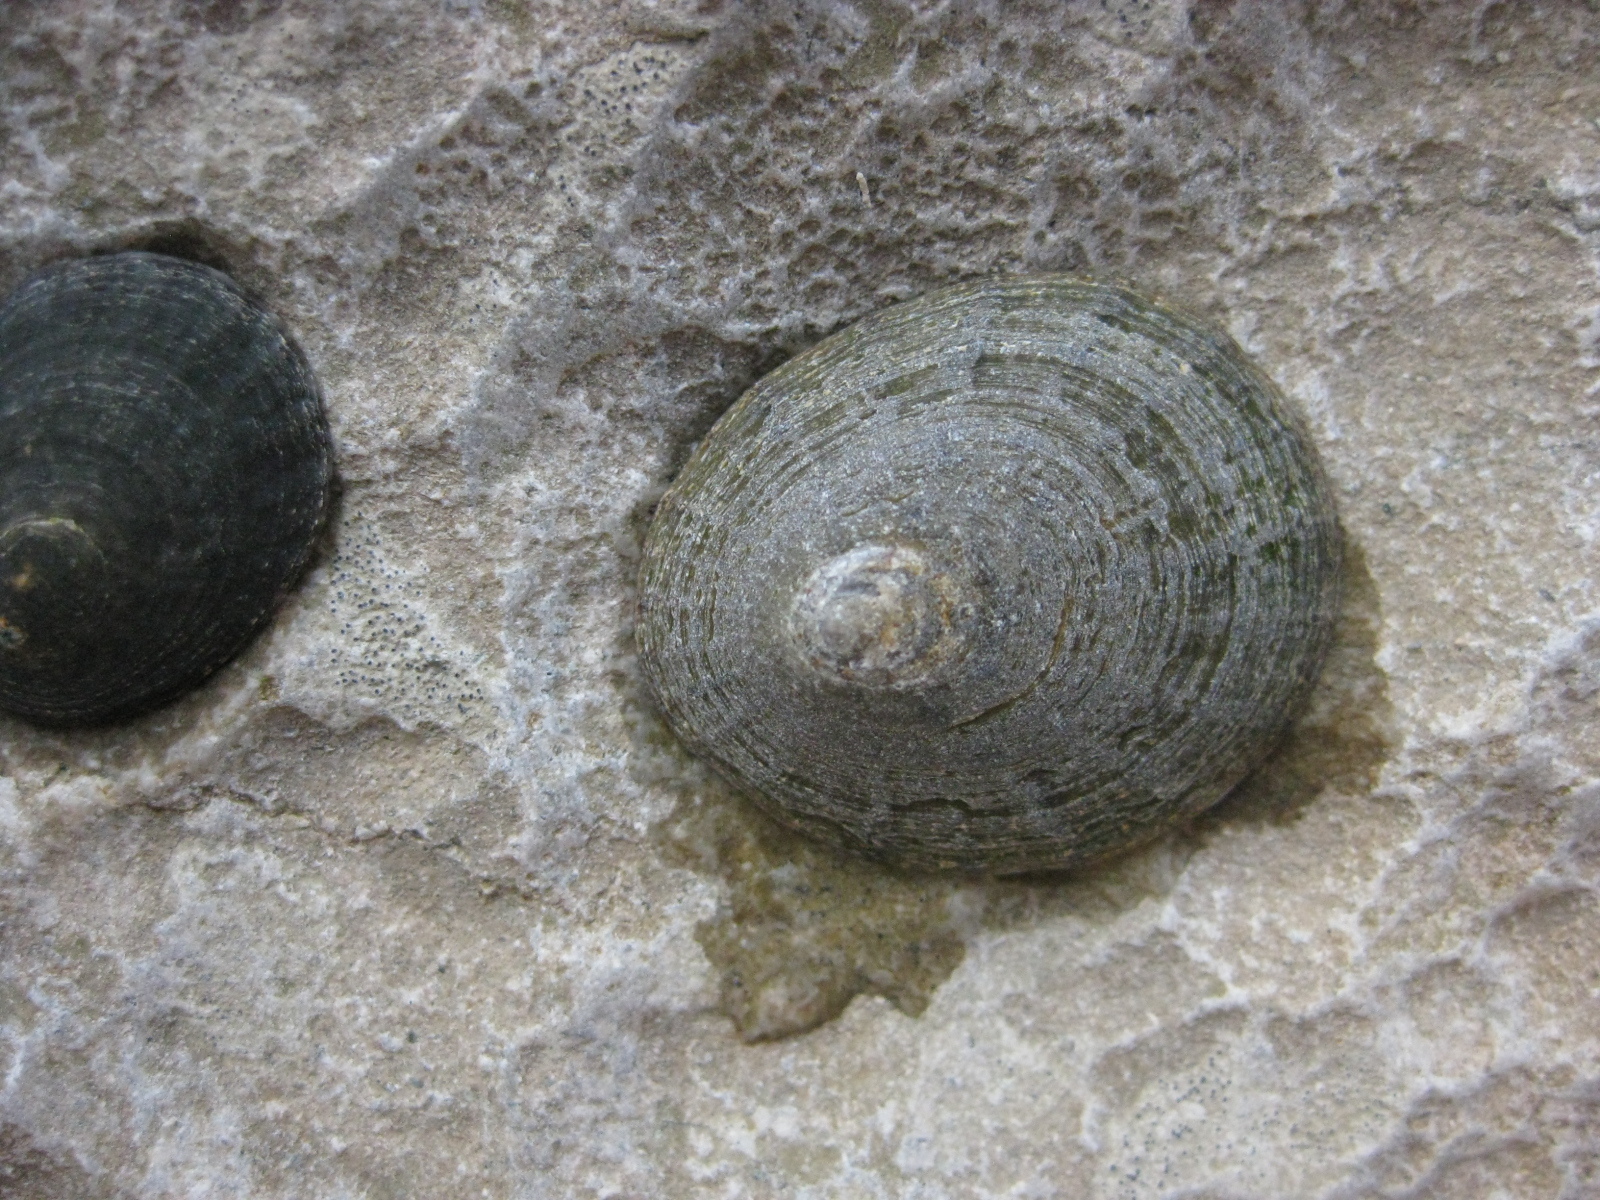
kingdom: Animalia
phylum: Mollusca
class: Gastropoda
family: Nacellidae
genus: Cellana
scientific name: Cellana radians
